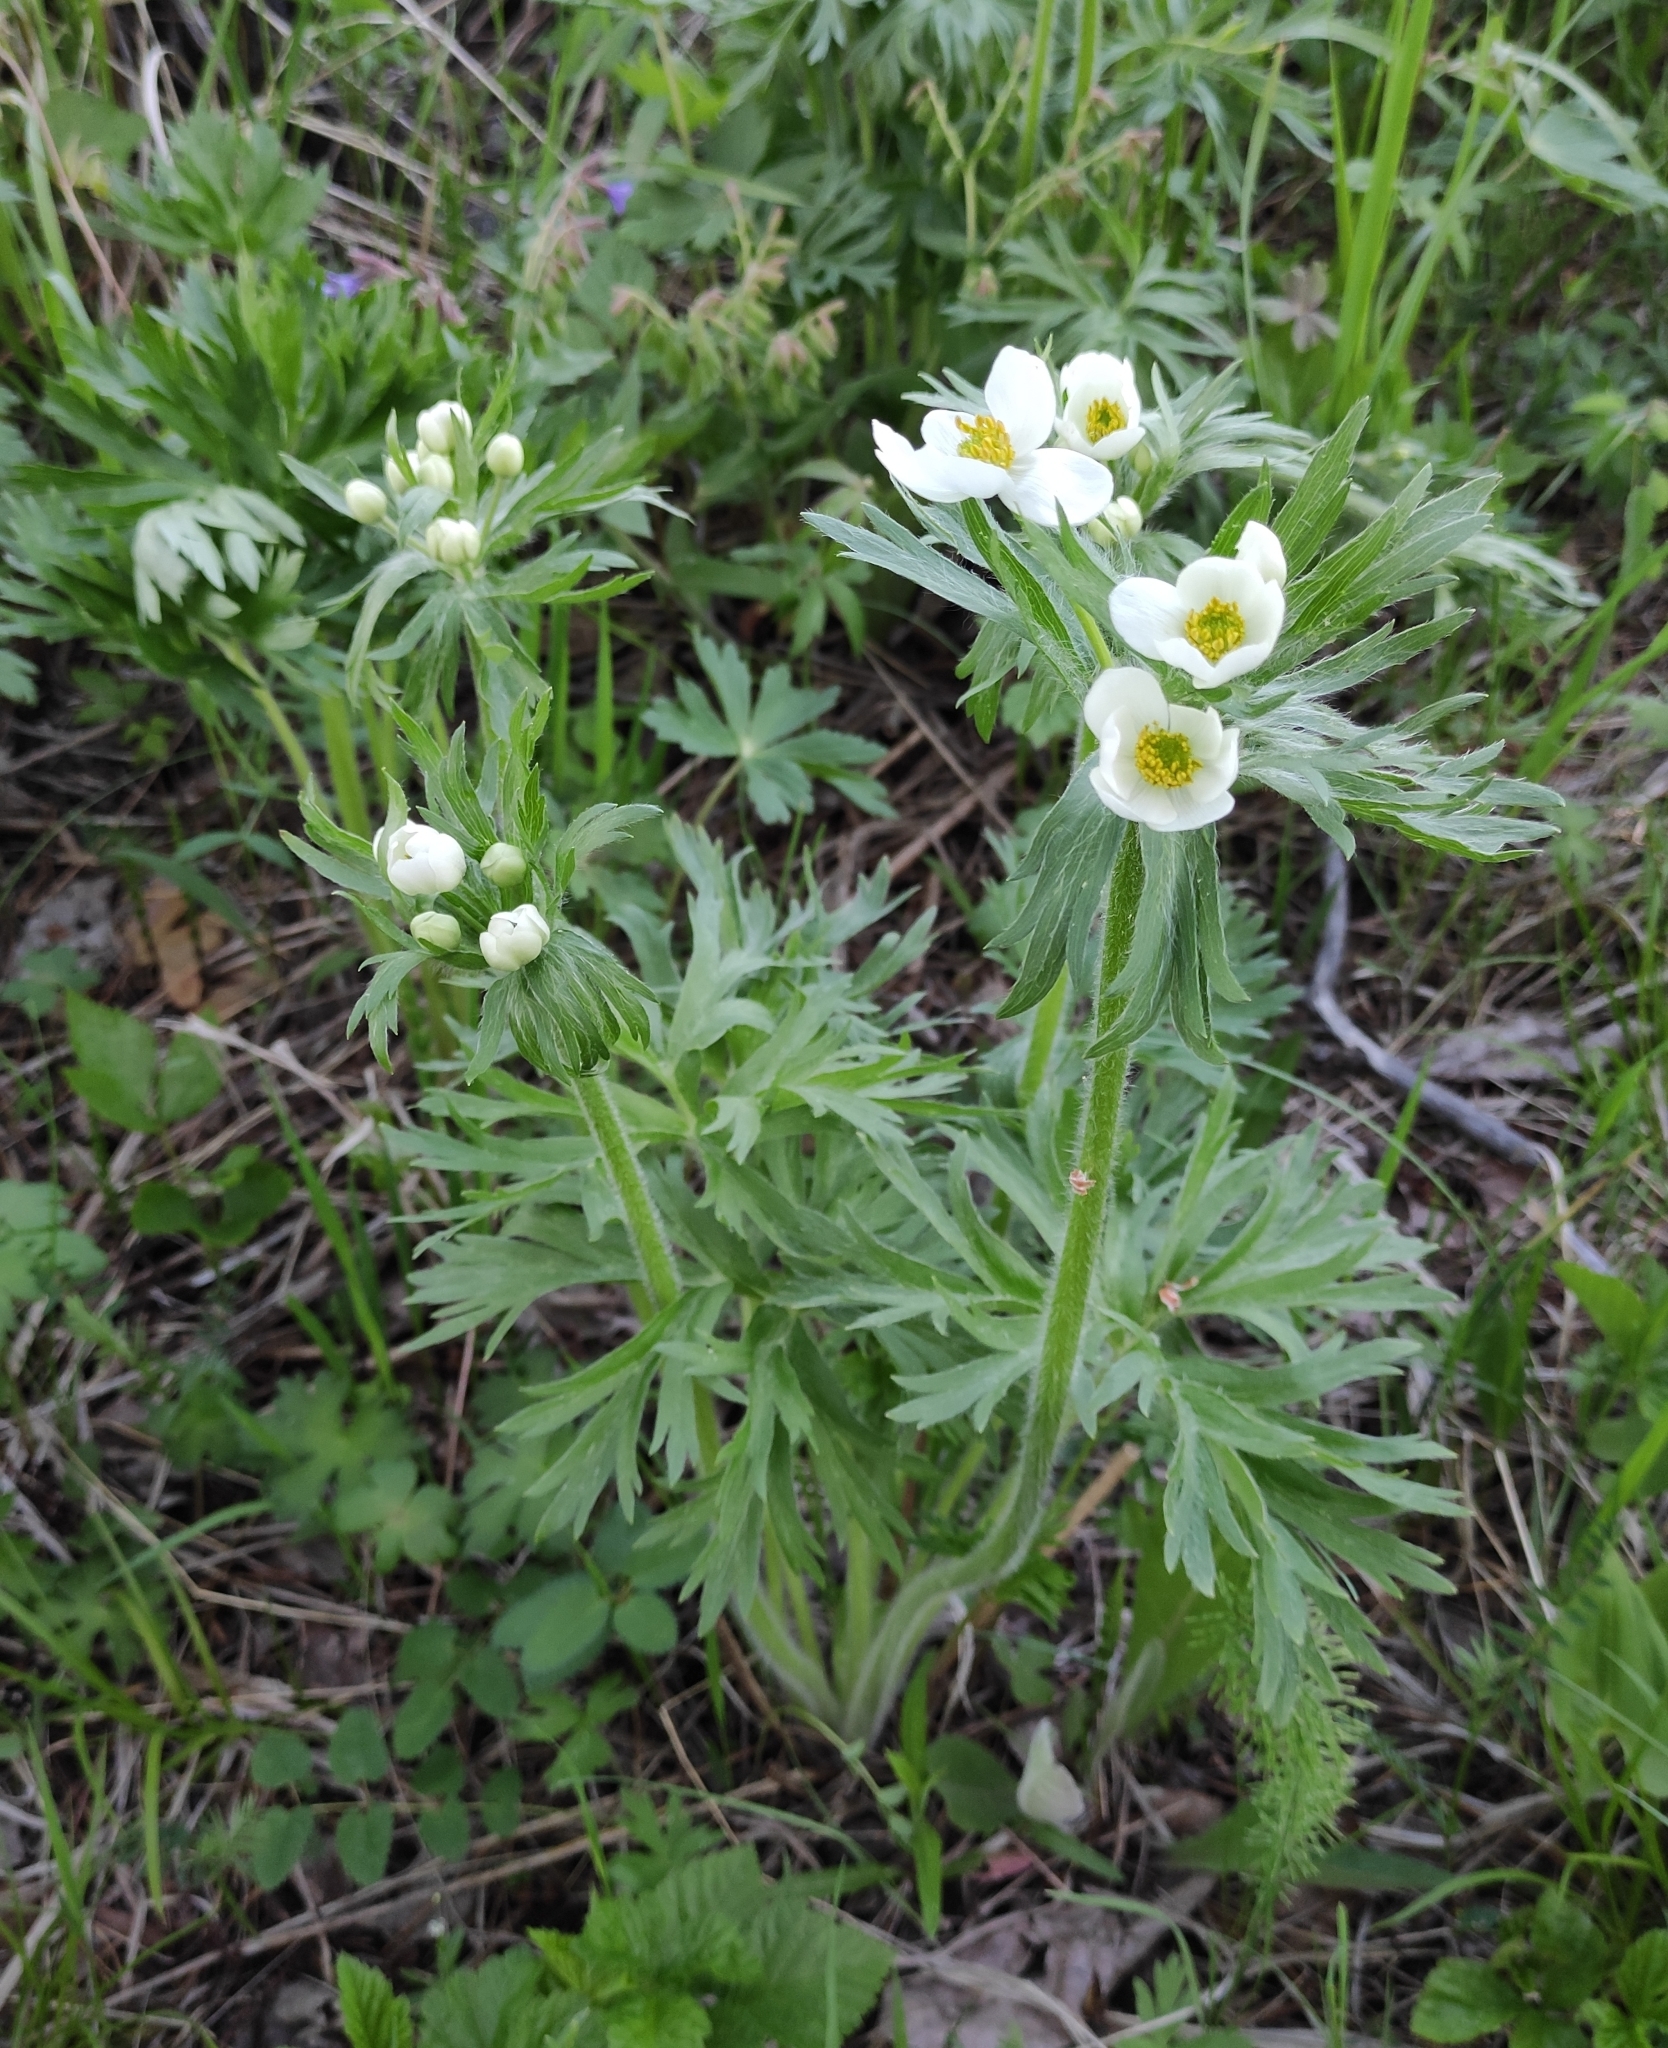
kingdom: Plantae
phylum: Tracheophyta
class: Magnoliopsida
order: Ranunculales
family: Ranunculaceae
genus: Anemonastrum
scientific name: Anemonastrum narcissiflorum
